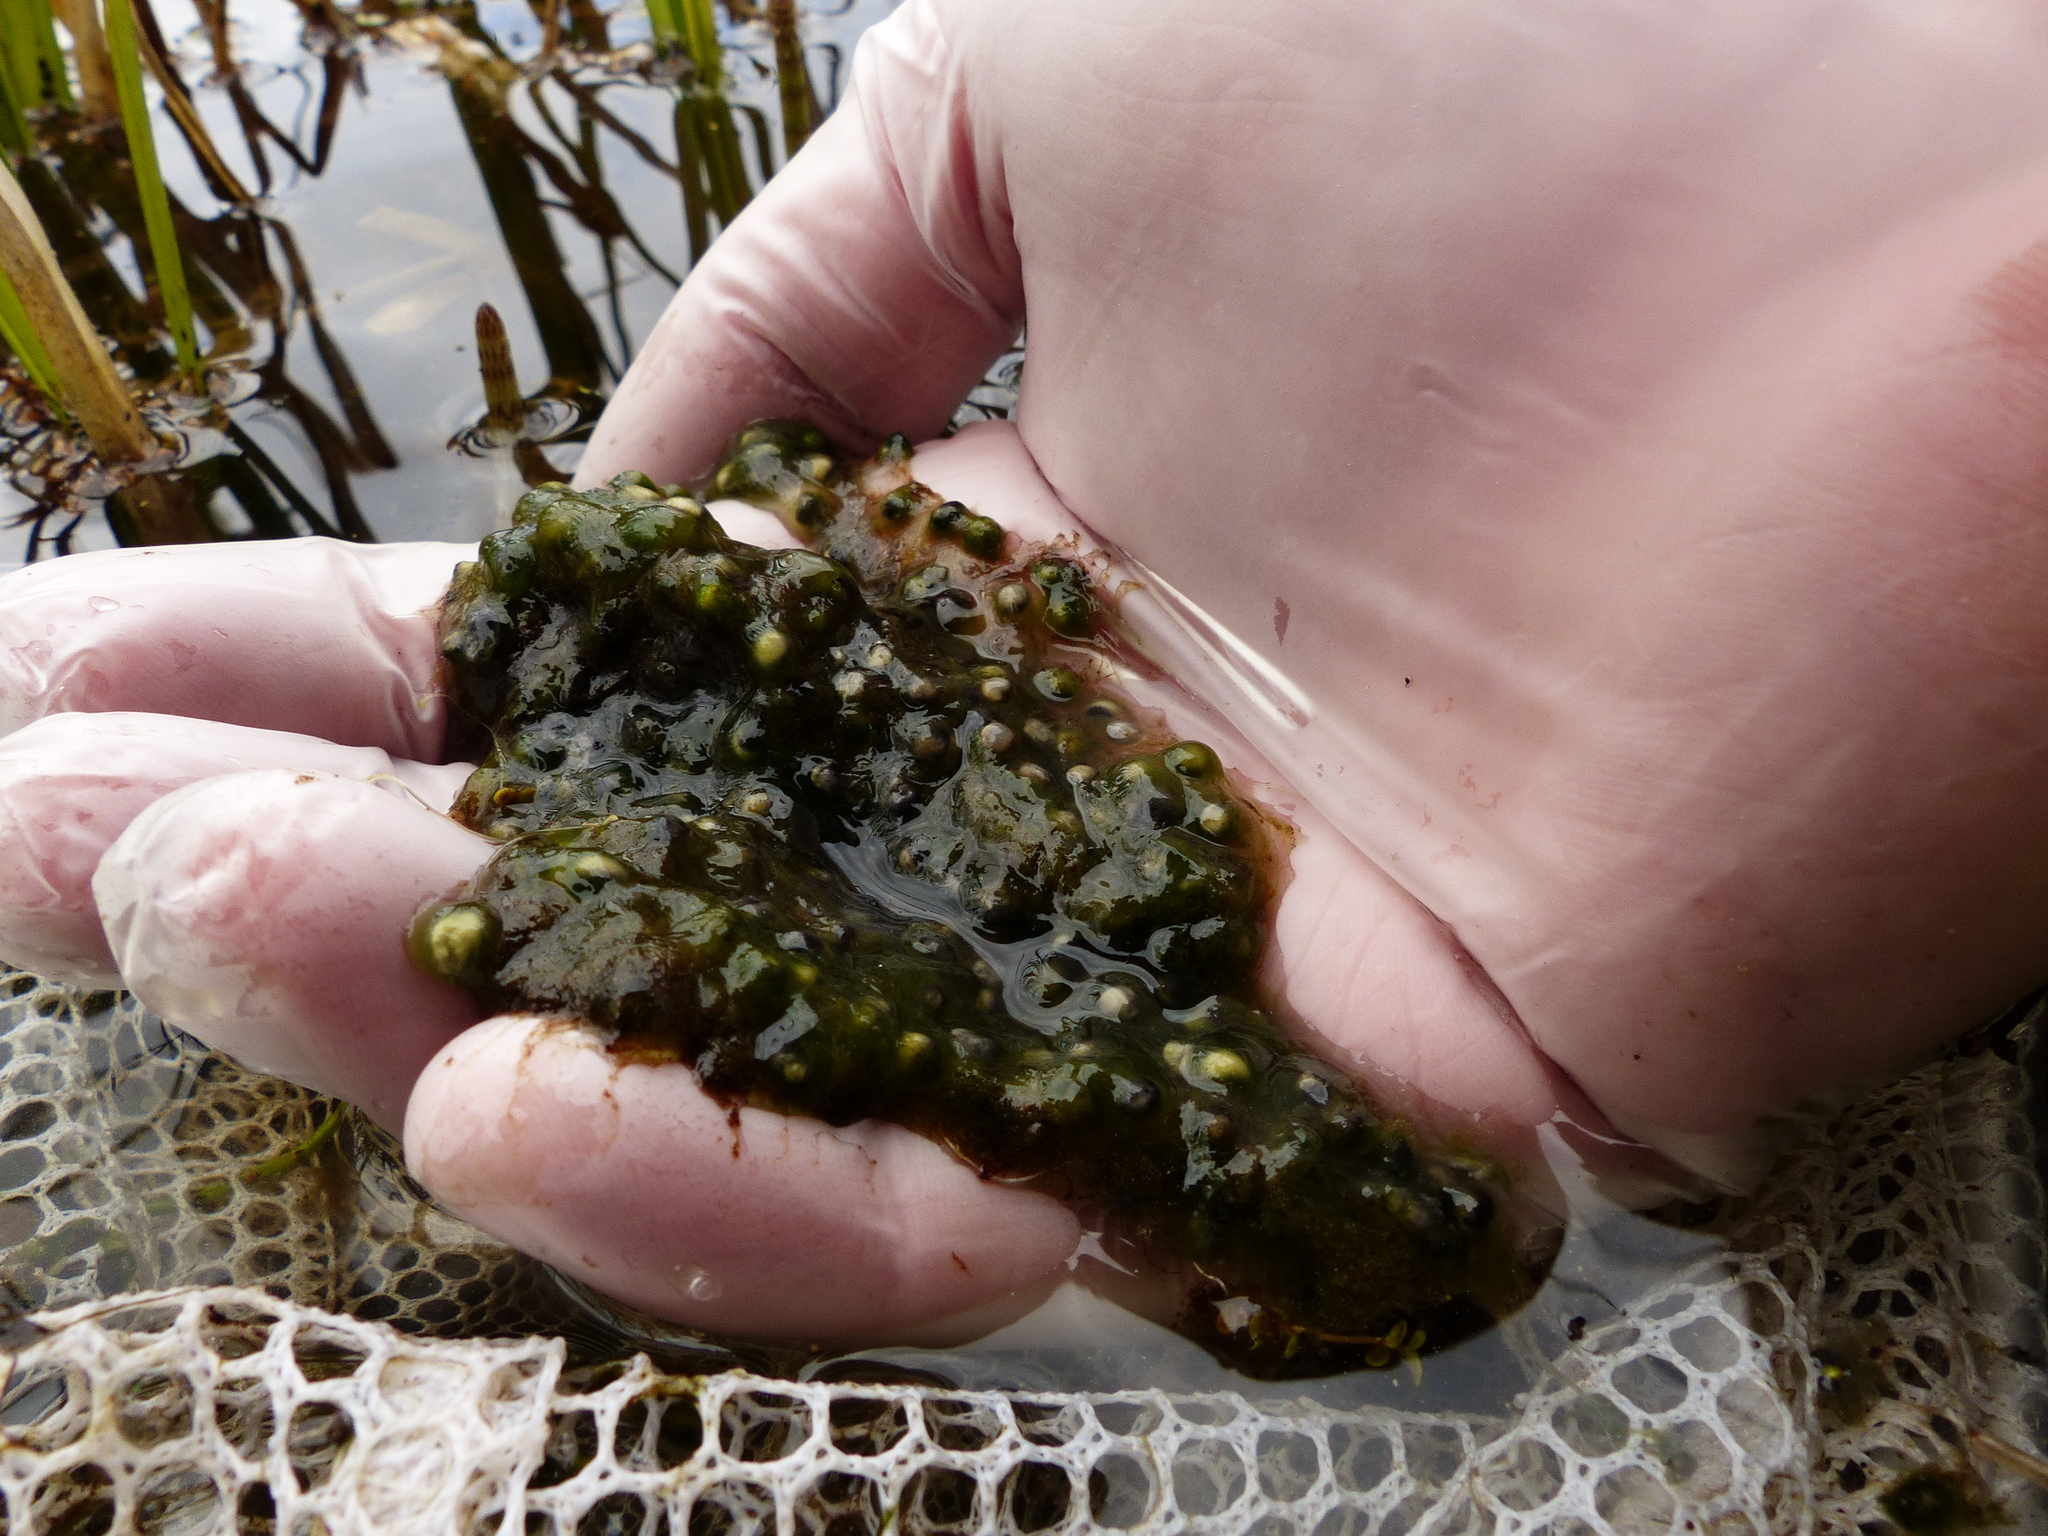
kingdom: Animalia
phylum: Chordata
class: Amphibia
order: Anura
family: Ranidae
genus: Lithobates
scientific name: Lithobates sylvaticus
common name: Wood frog
